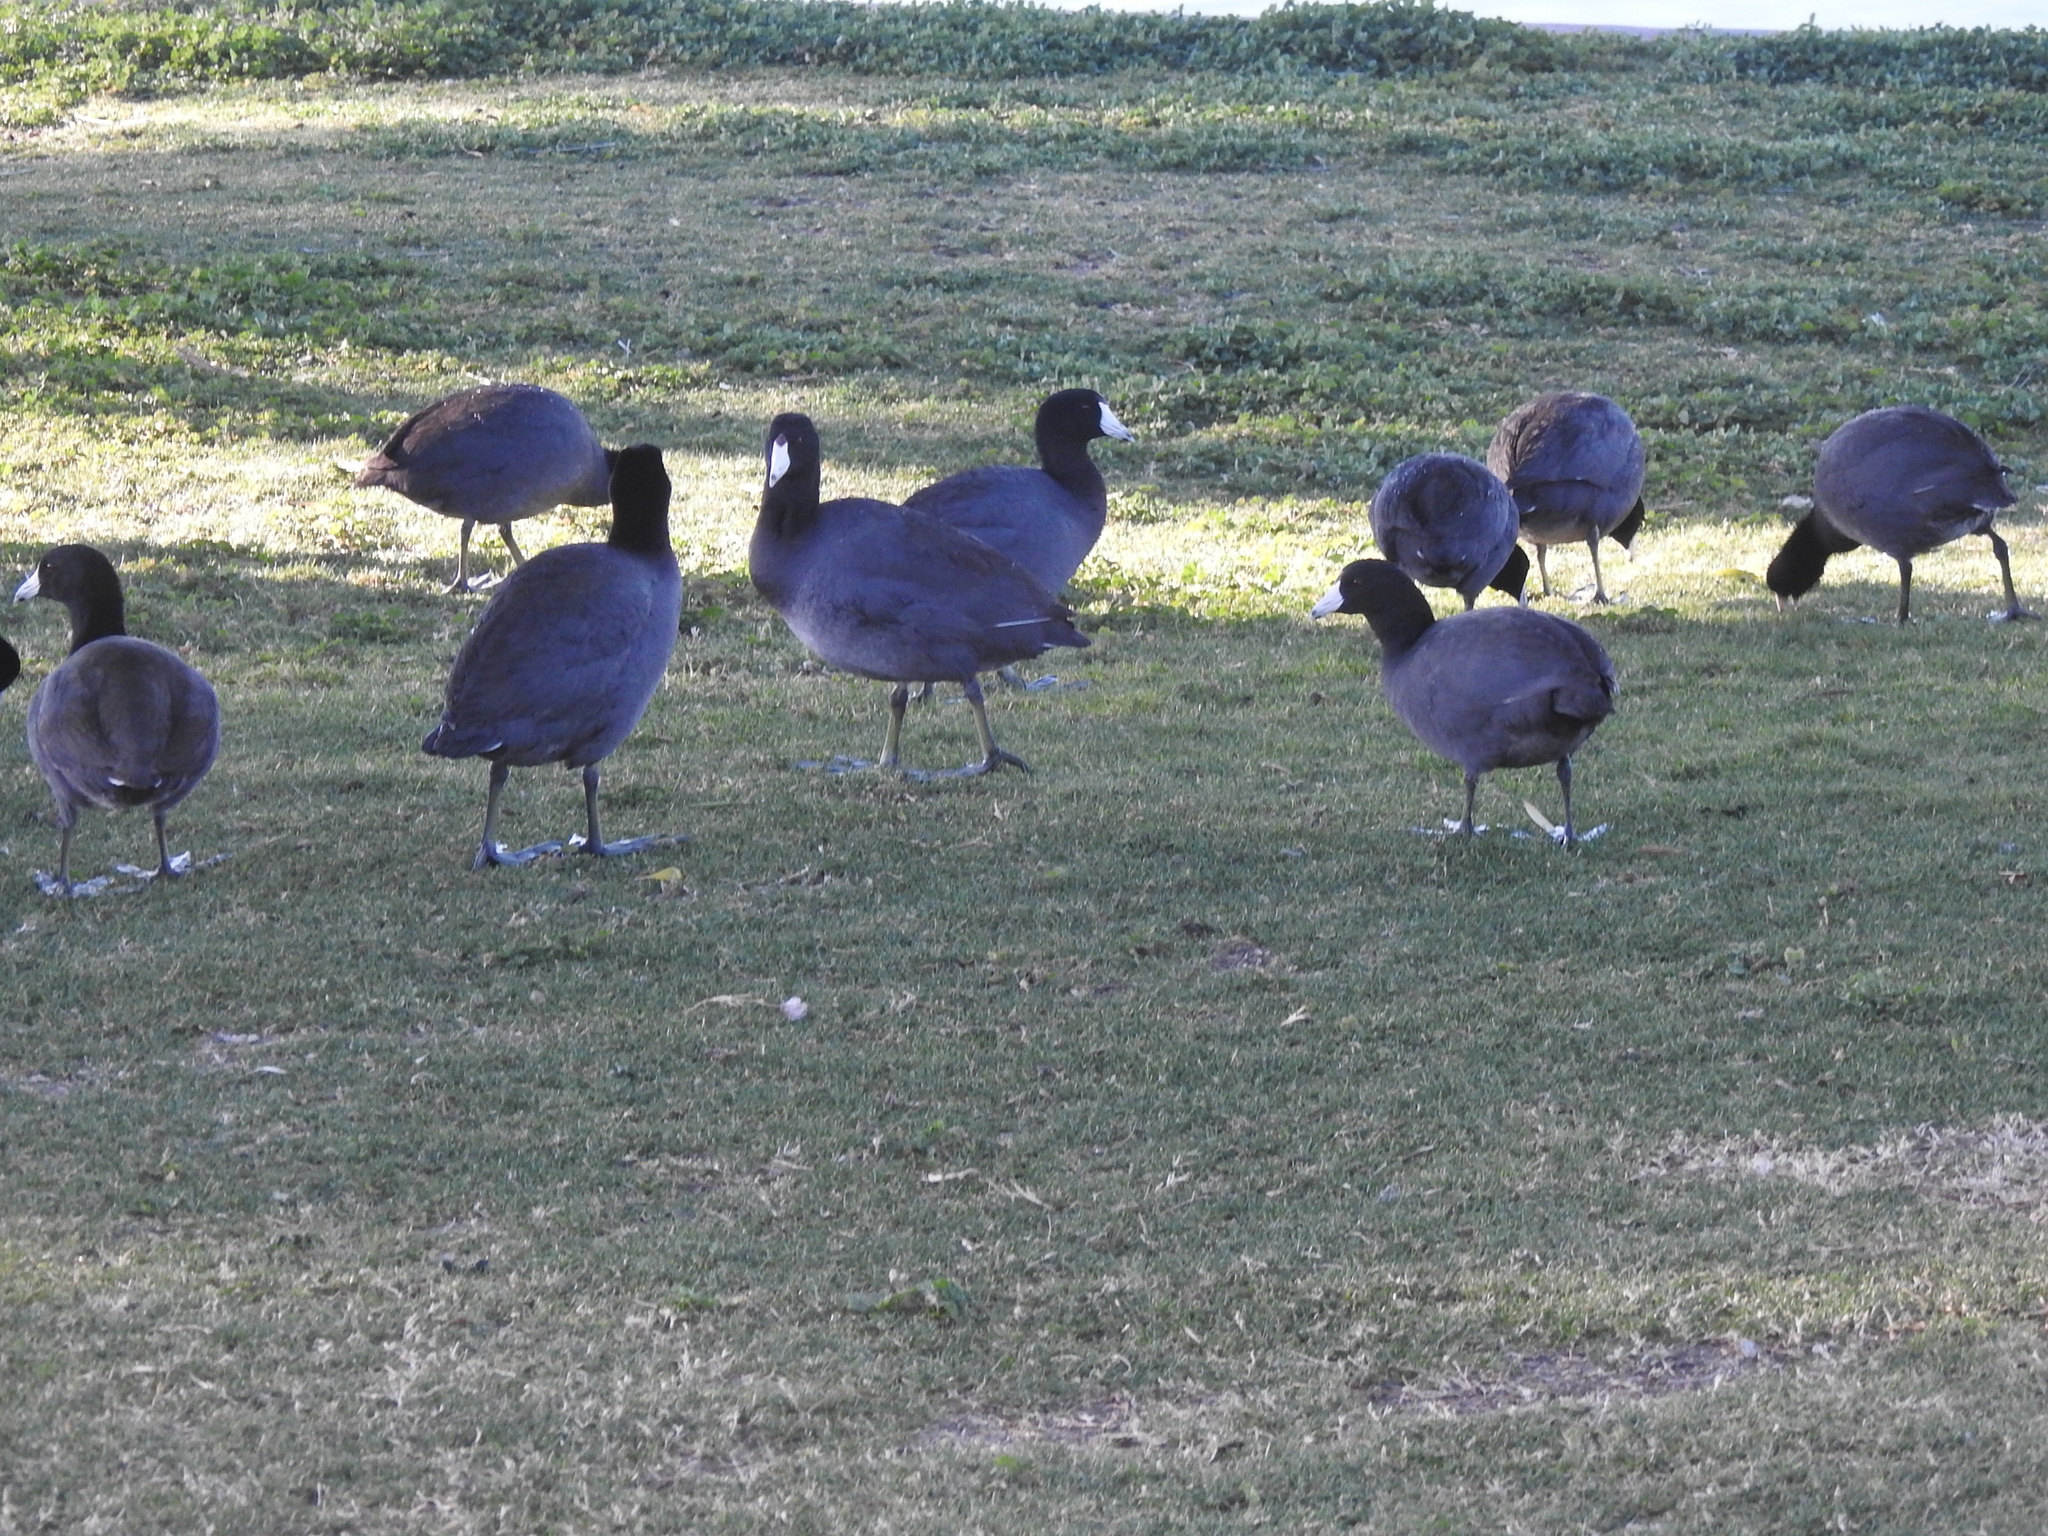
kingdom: Animalia
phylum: Chordata
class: Aves
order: Gruiformes
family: Rallidae
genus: Fulica
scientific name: Fulica americana
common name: American coot
